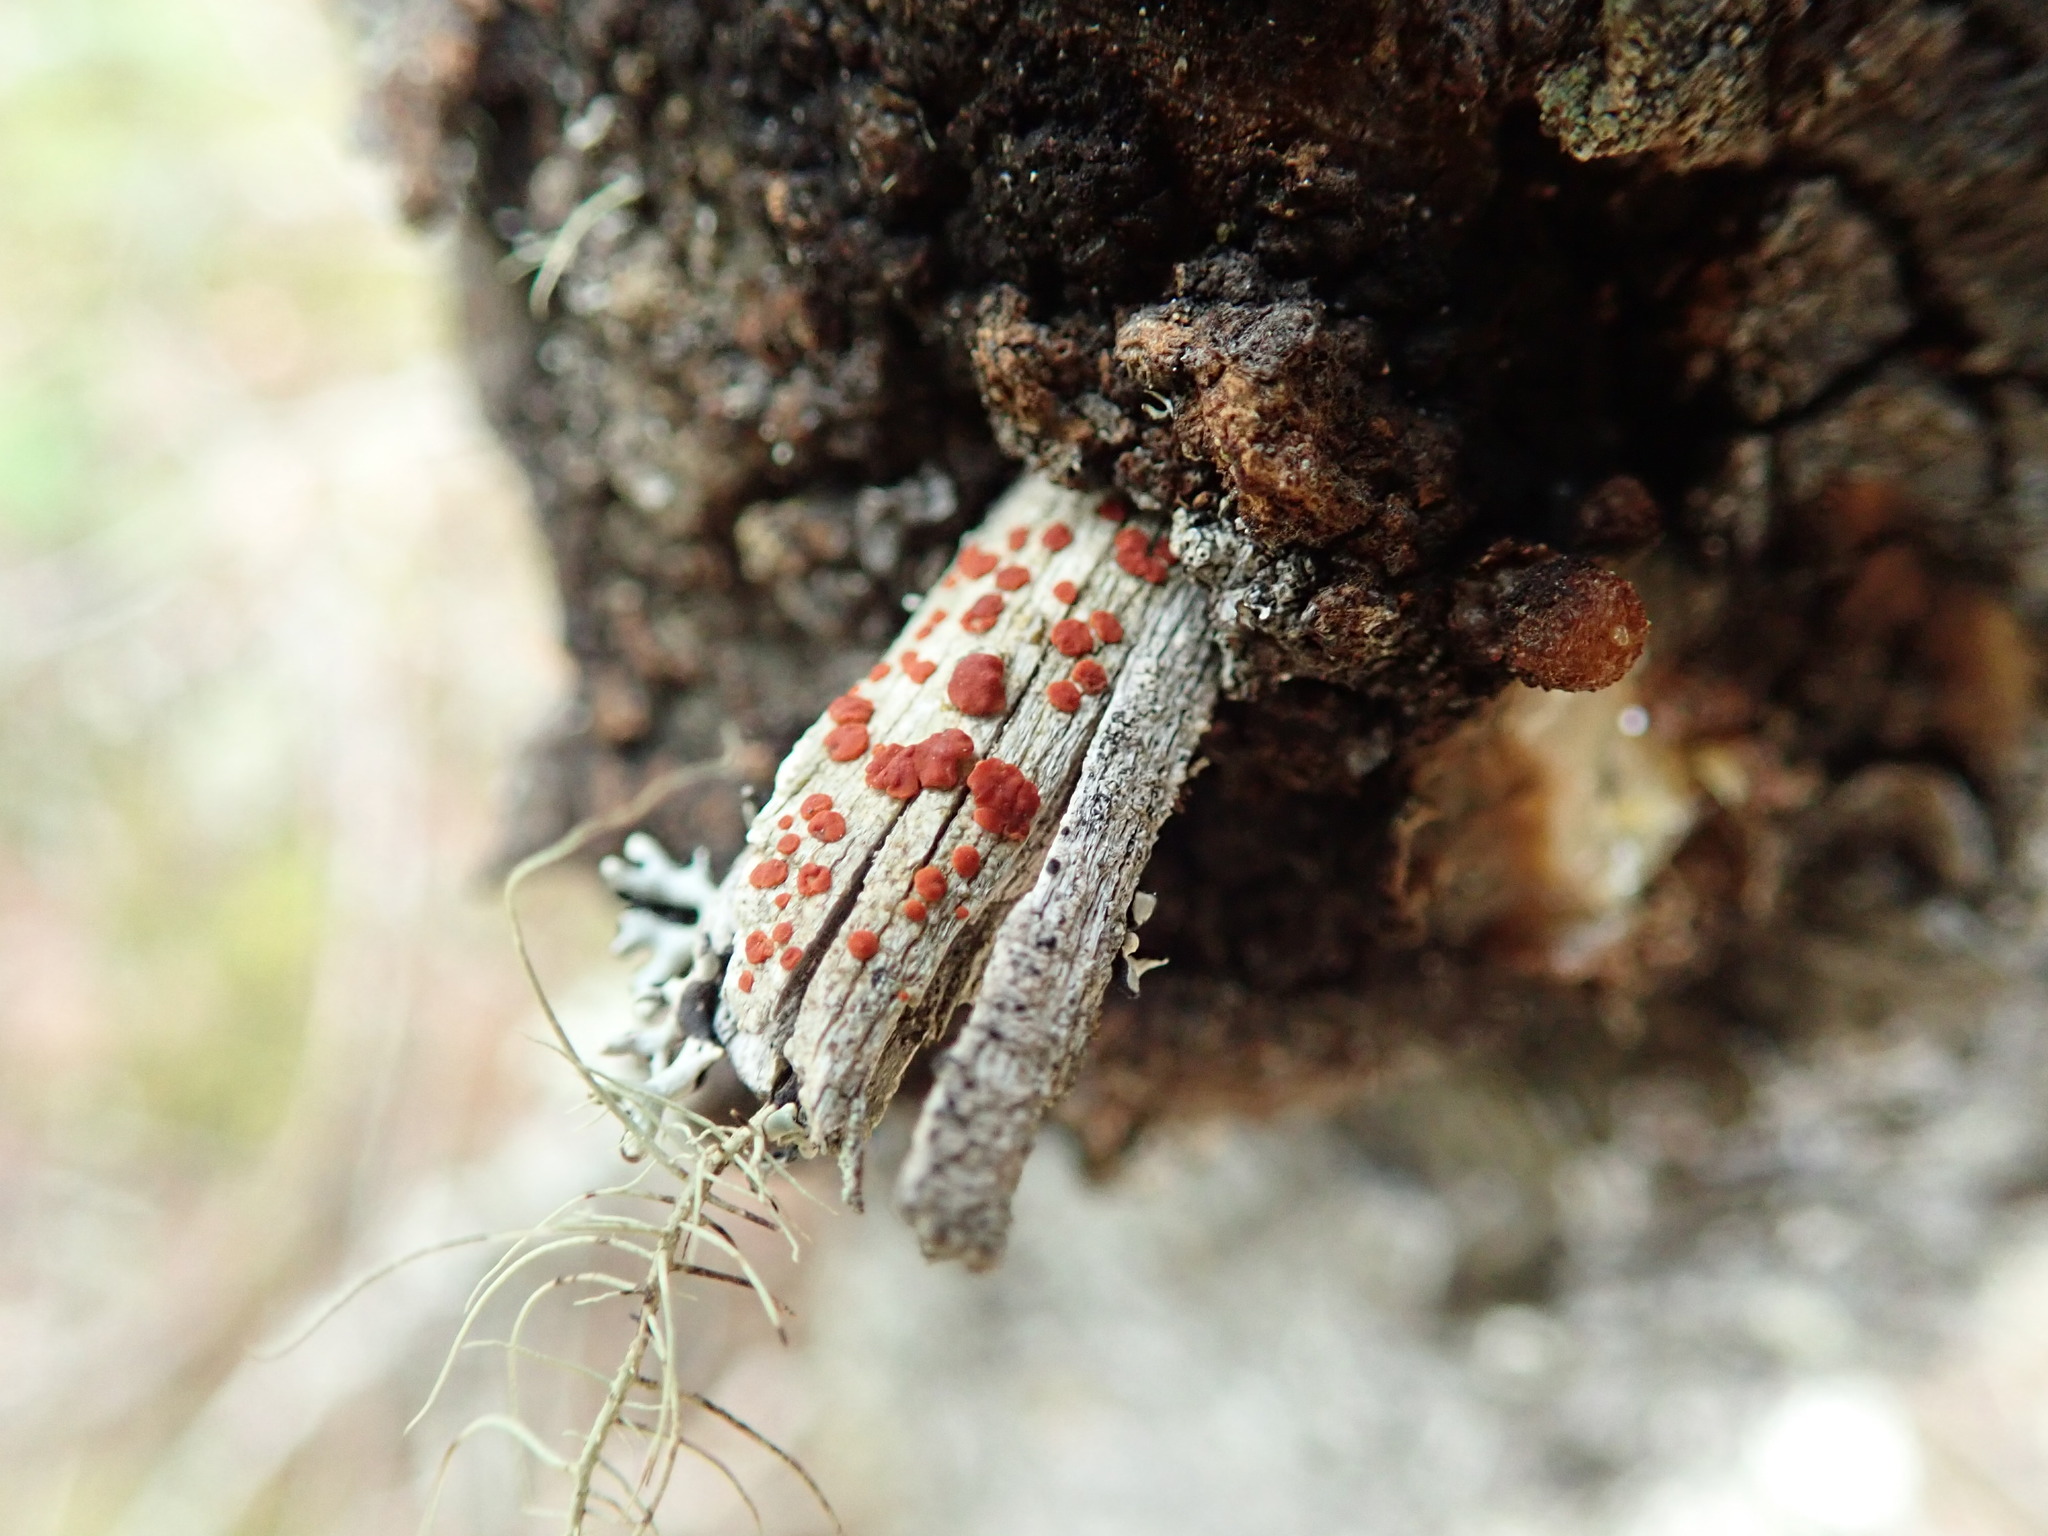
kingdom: Fungi
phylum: Ascomycota
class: Lecanoromycetes
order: Lecanorales
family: Ramboldiaceae
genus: Ramboldia
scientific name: Ramboldia gowardiana
